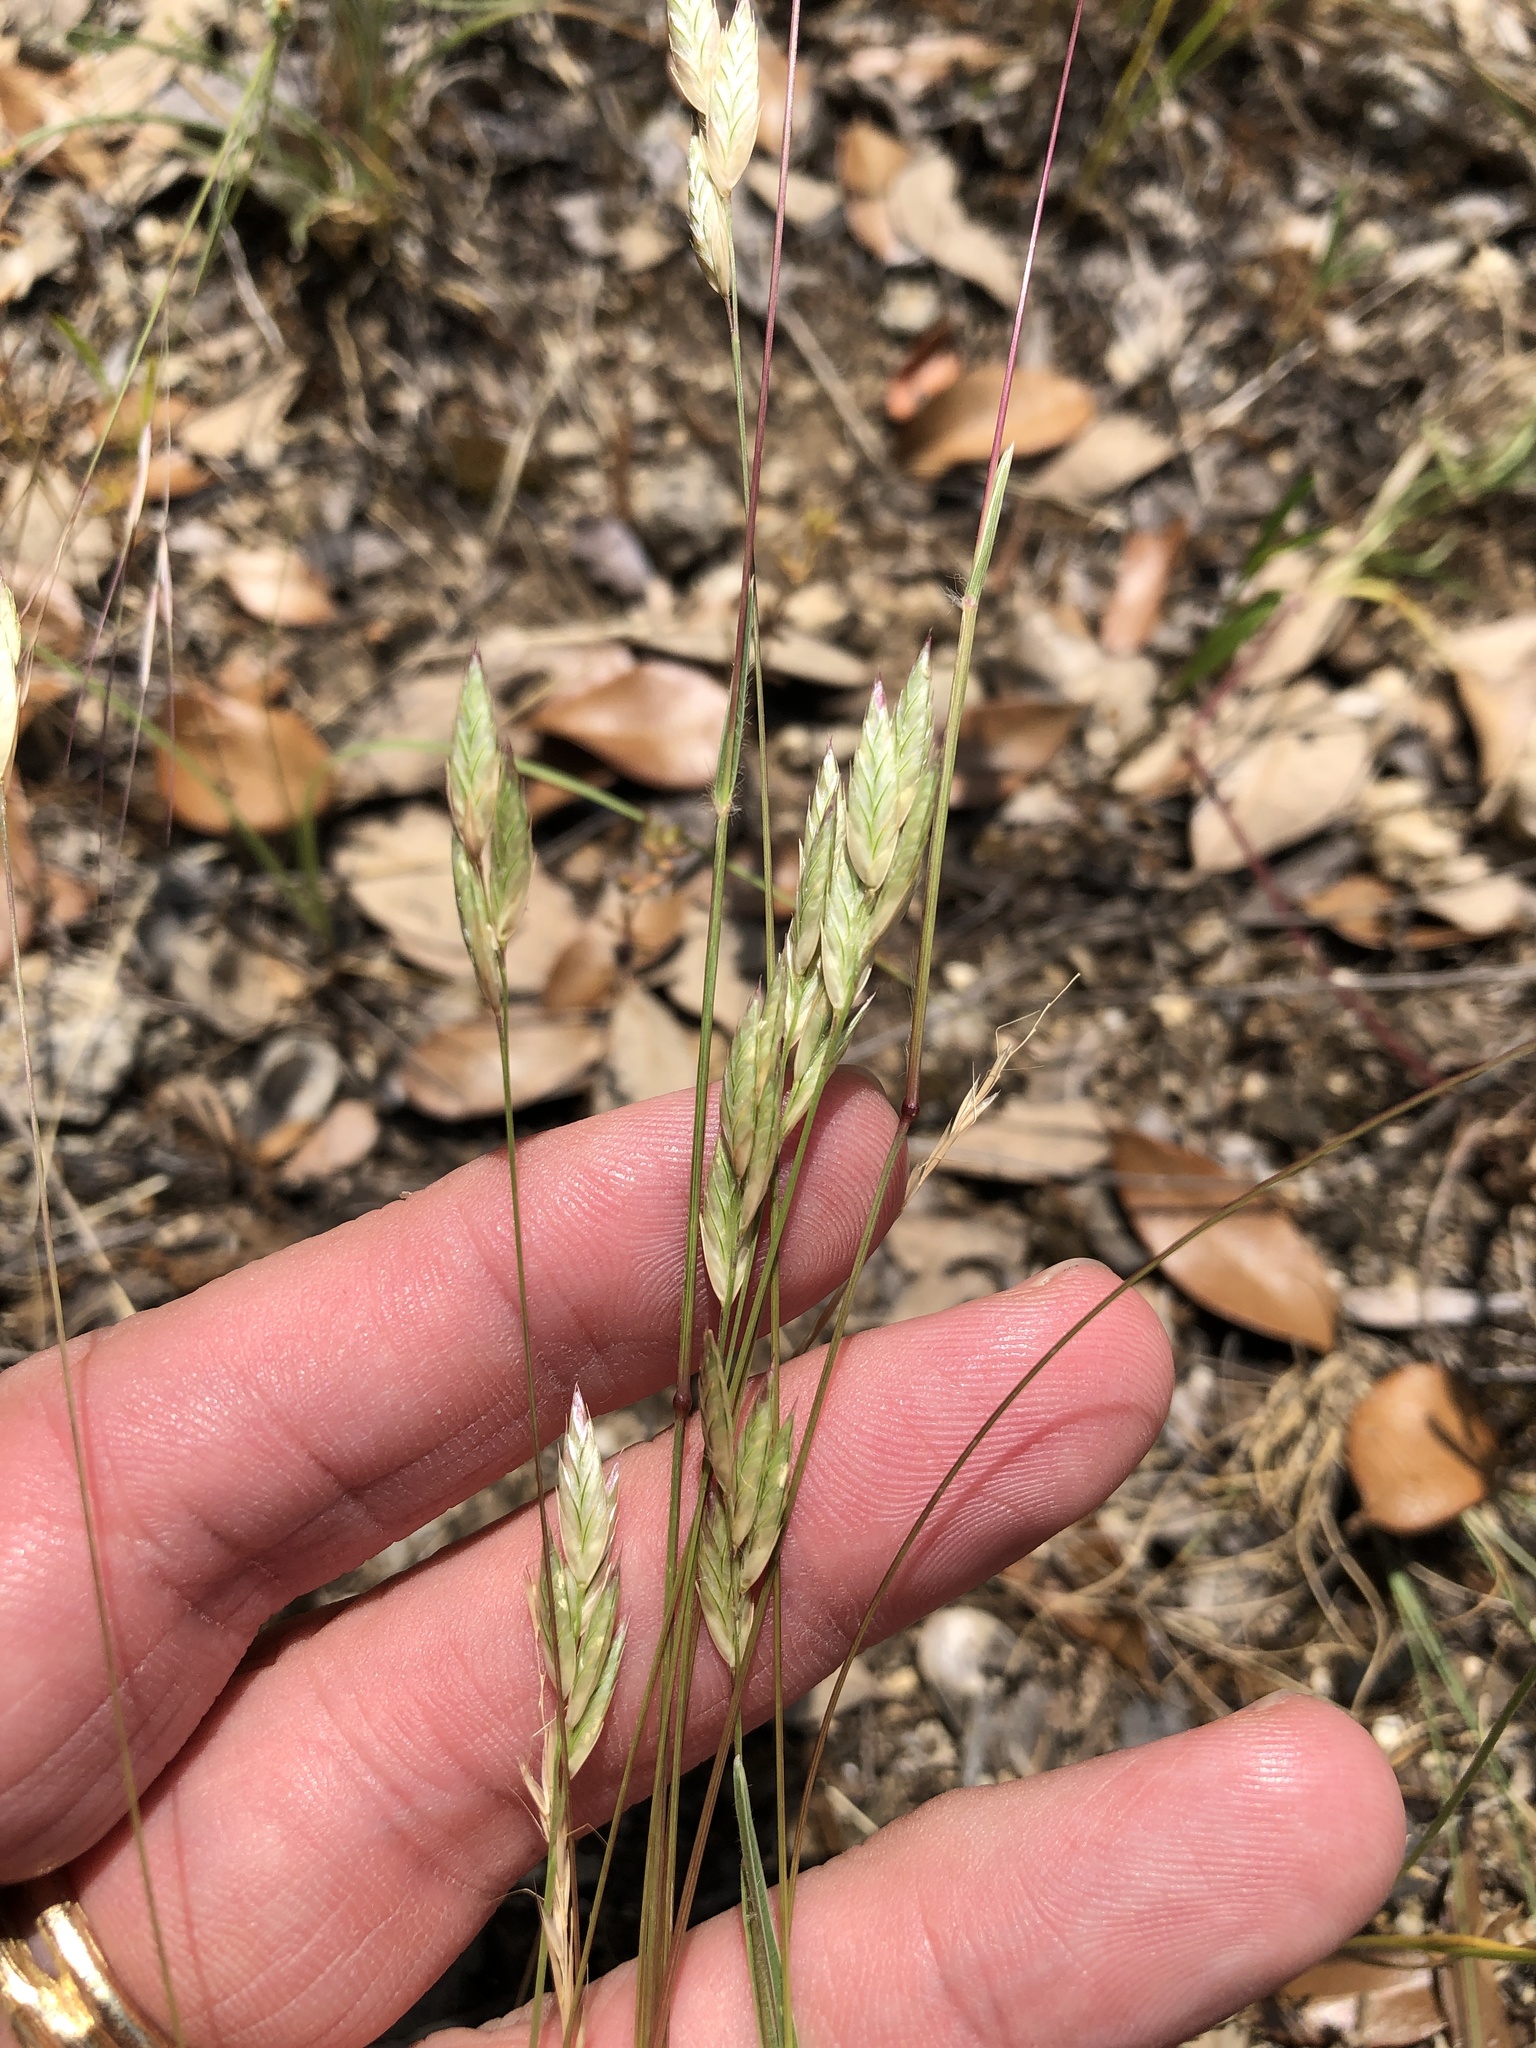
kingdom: Plantae
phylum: Tracheophyta
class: Liliopsida
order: Poales
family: Poaceae
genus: Erioneuron
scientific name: Erioneuron pilosum
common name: Hairy woolly grass
